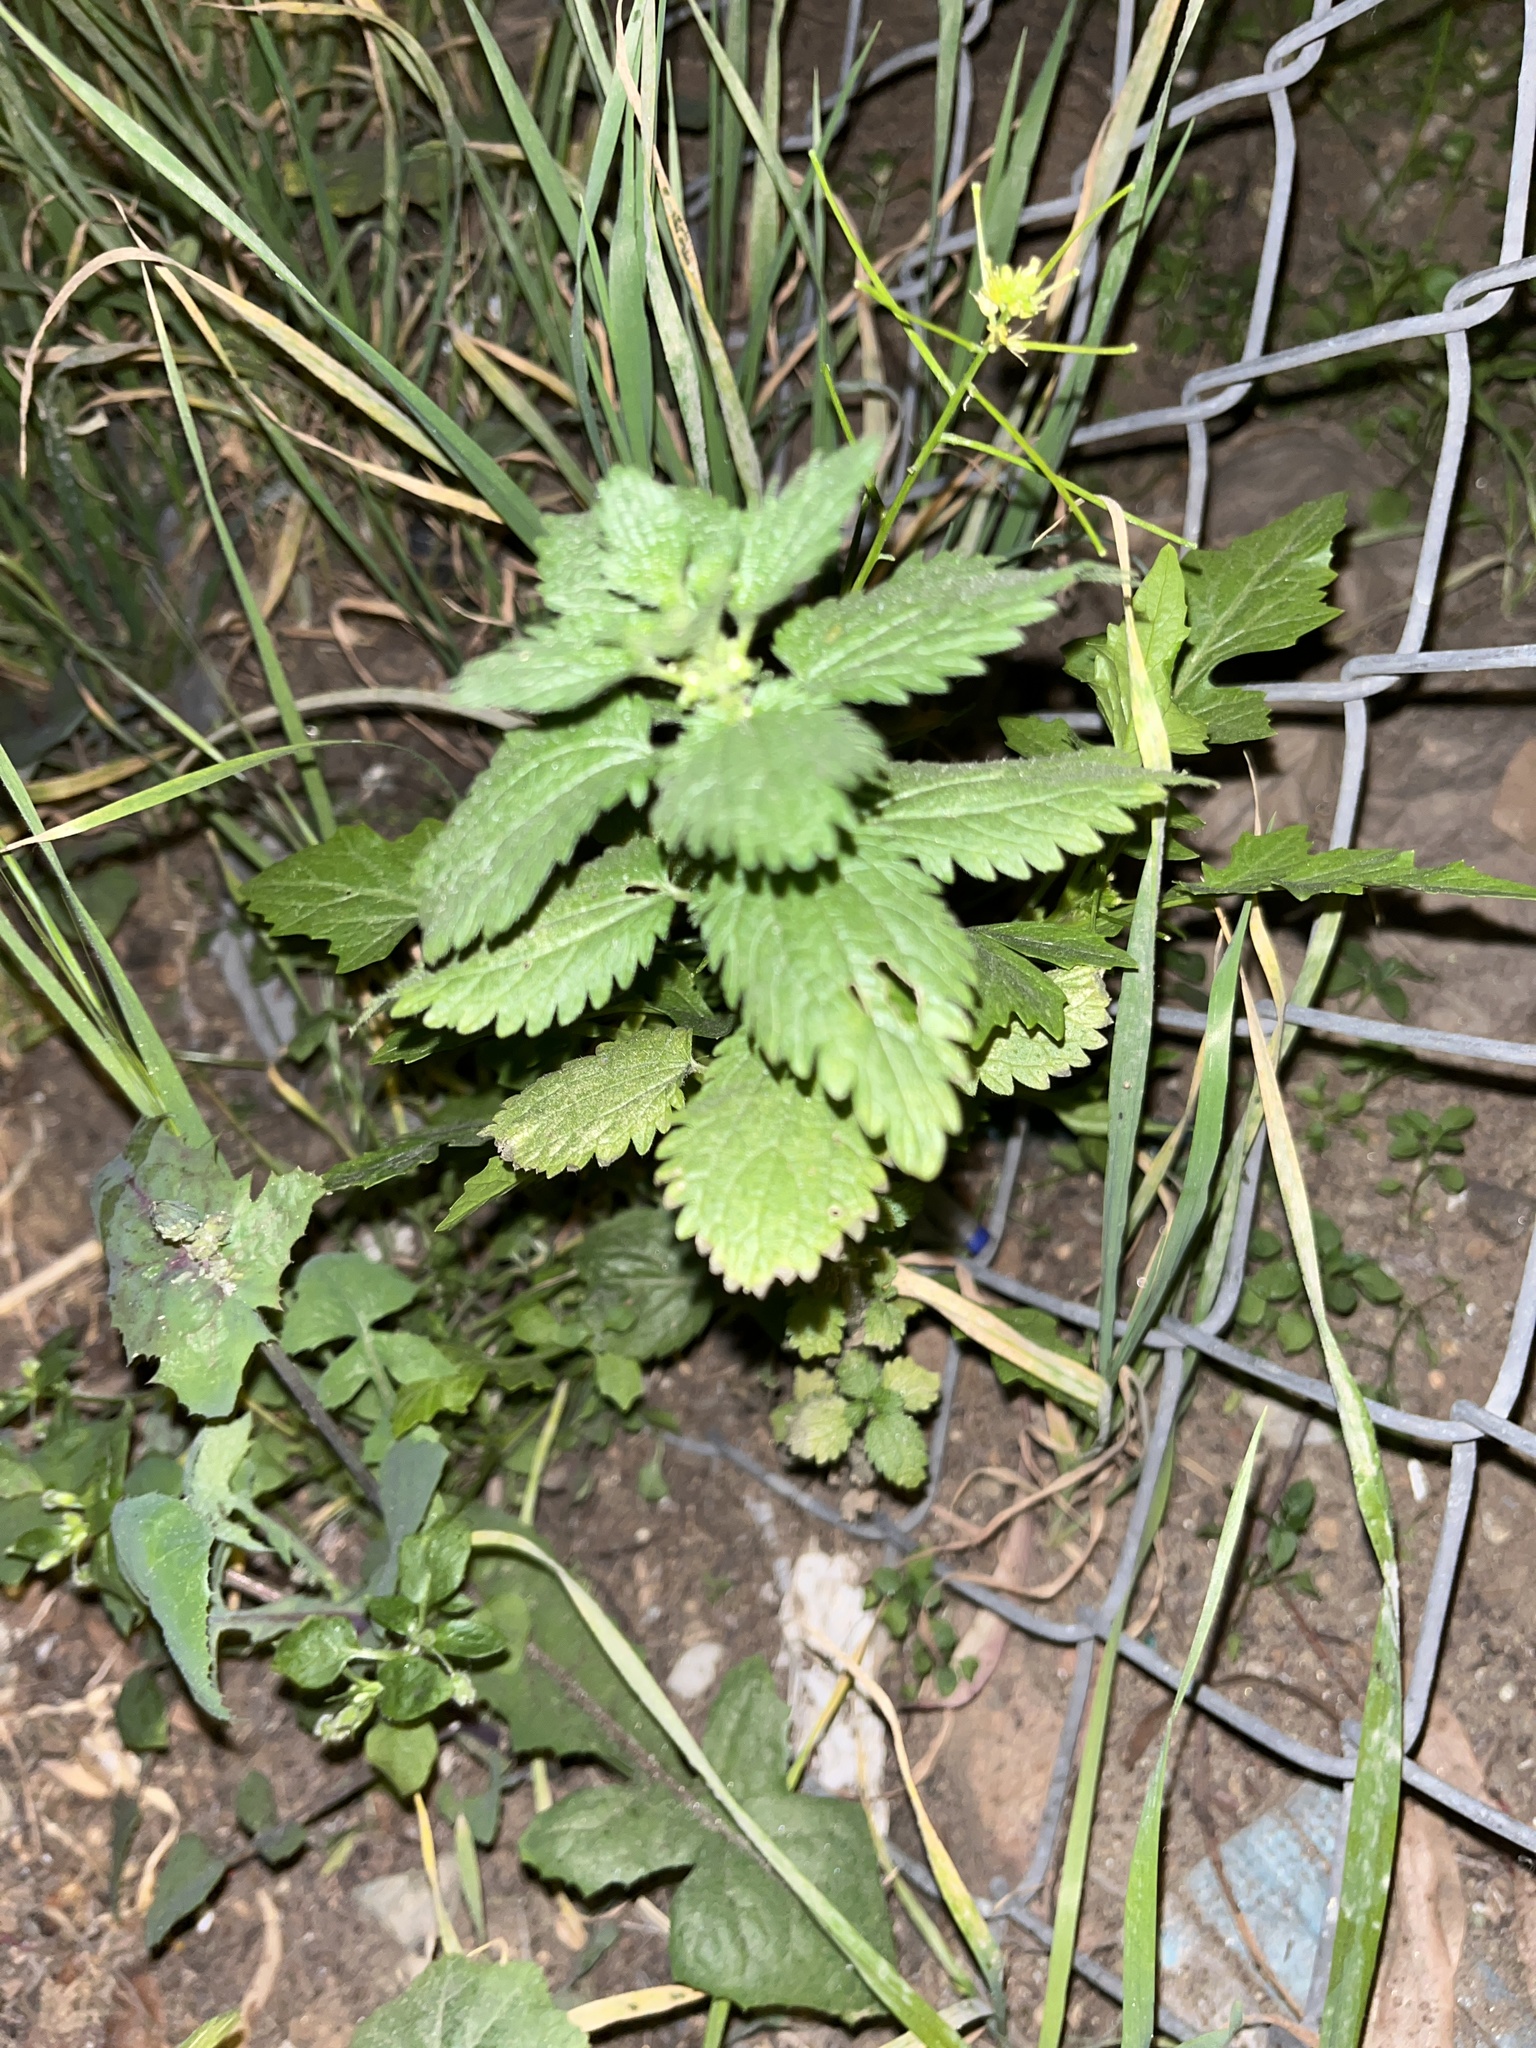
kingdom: Plantae
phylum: Tracheophyta
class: Magnoliopsida
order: Rosales
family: Urticaceae
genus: Urtica
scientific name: Urtica urens
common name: Dwarf nettle
